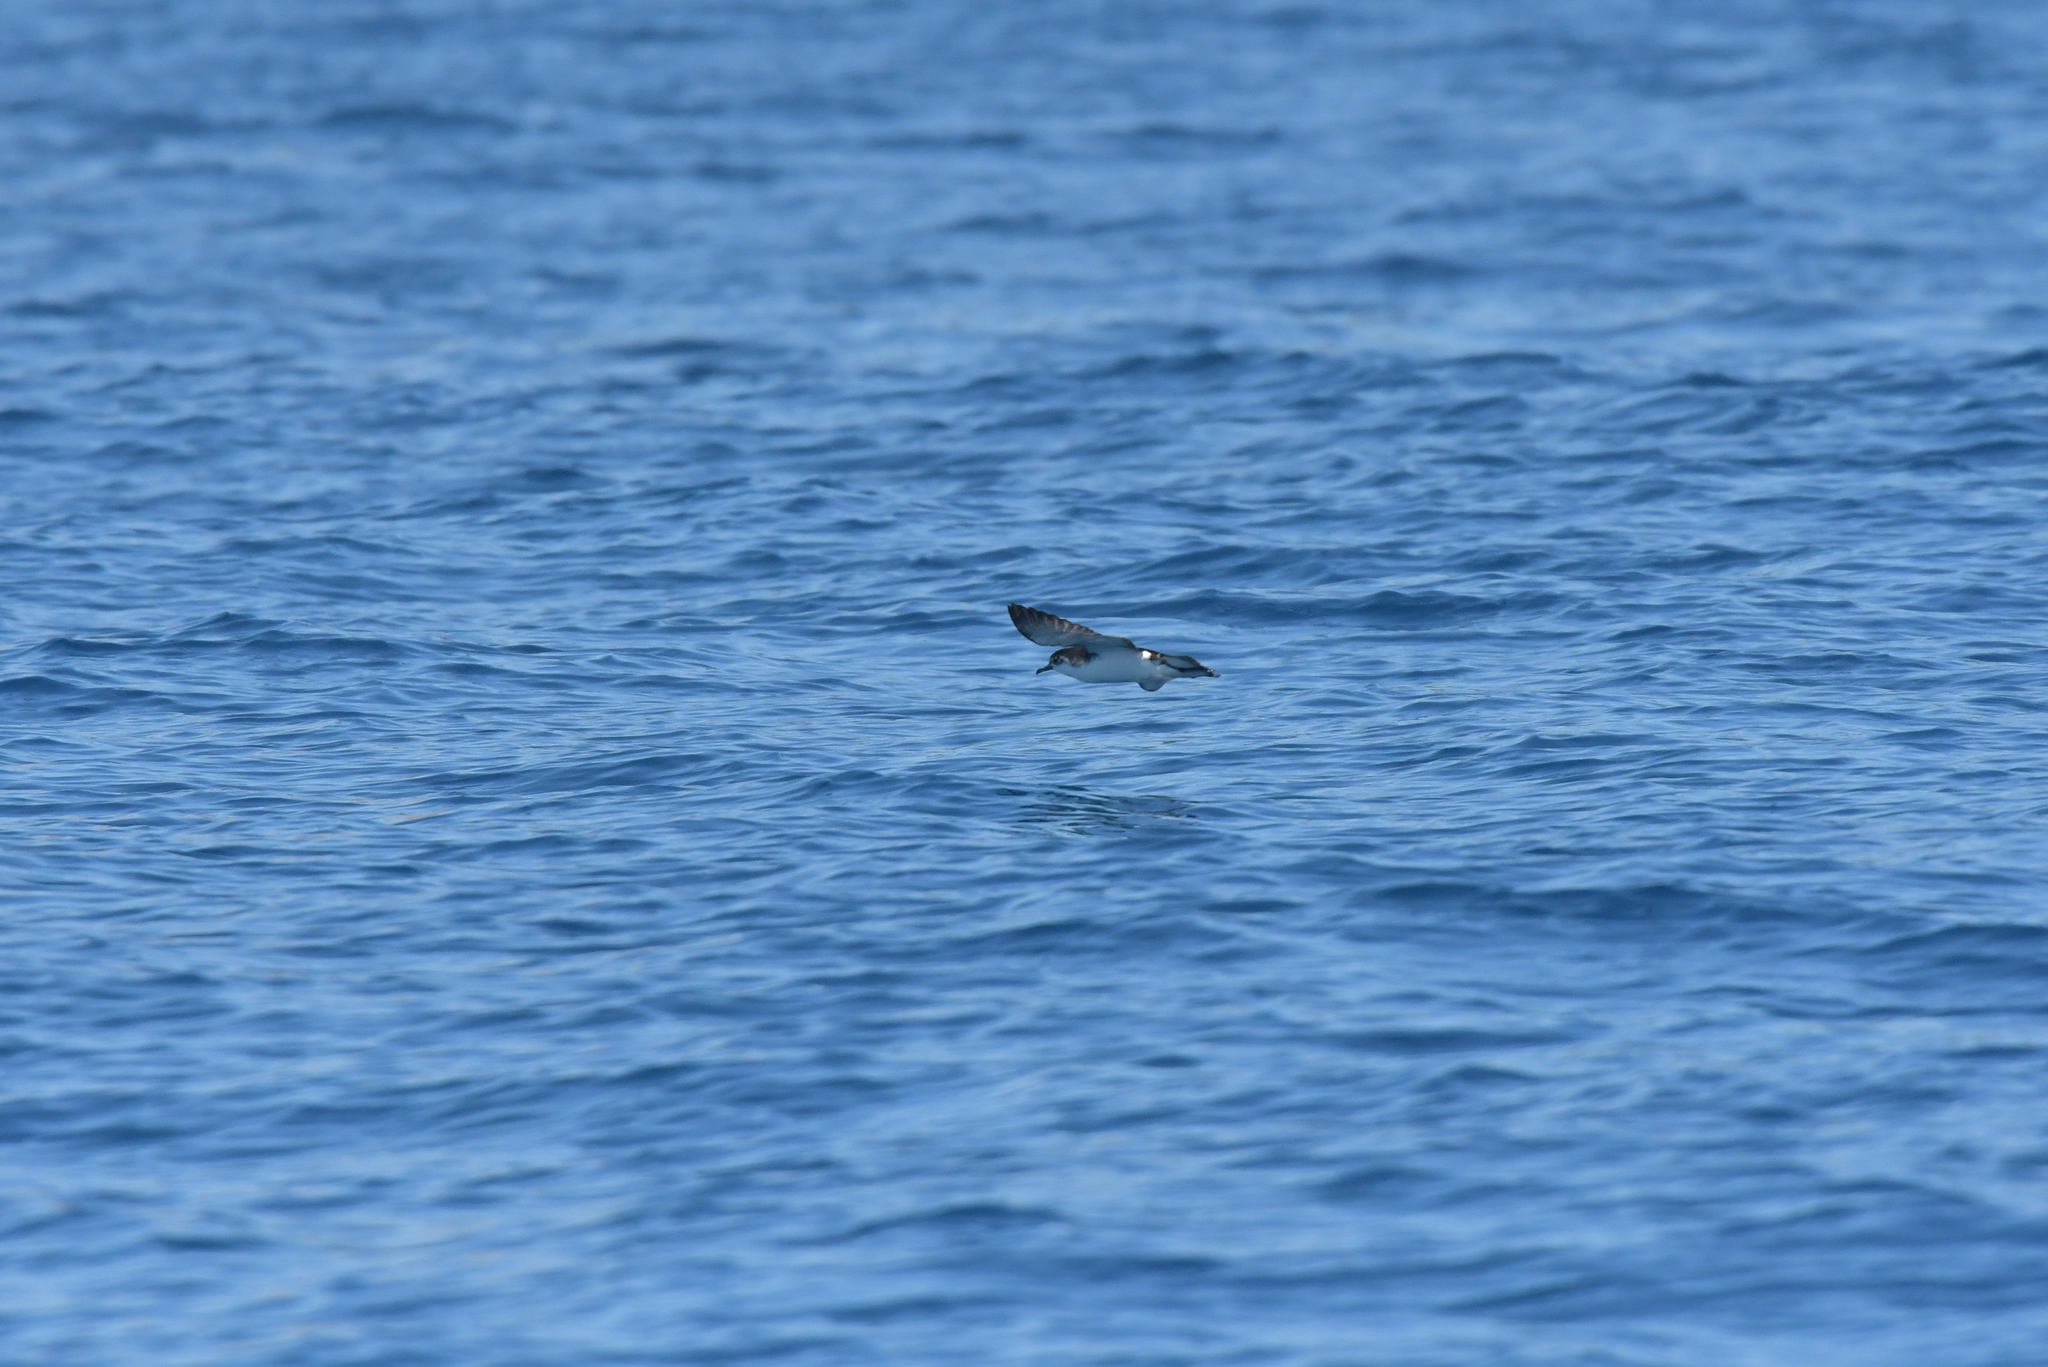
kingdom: Animalia
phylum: Chordata
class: Aves
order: Procellariiformes
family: Procellariidae
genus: Puffinus
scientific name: Puffinus assimilis
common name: Little shearwater
